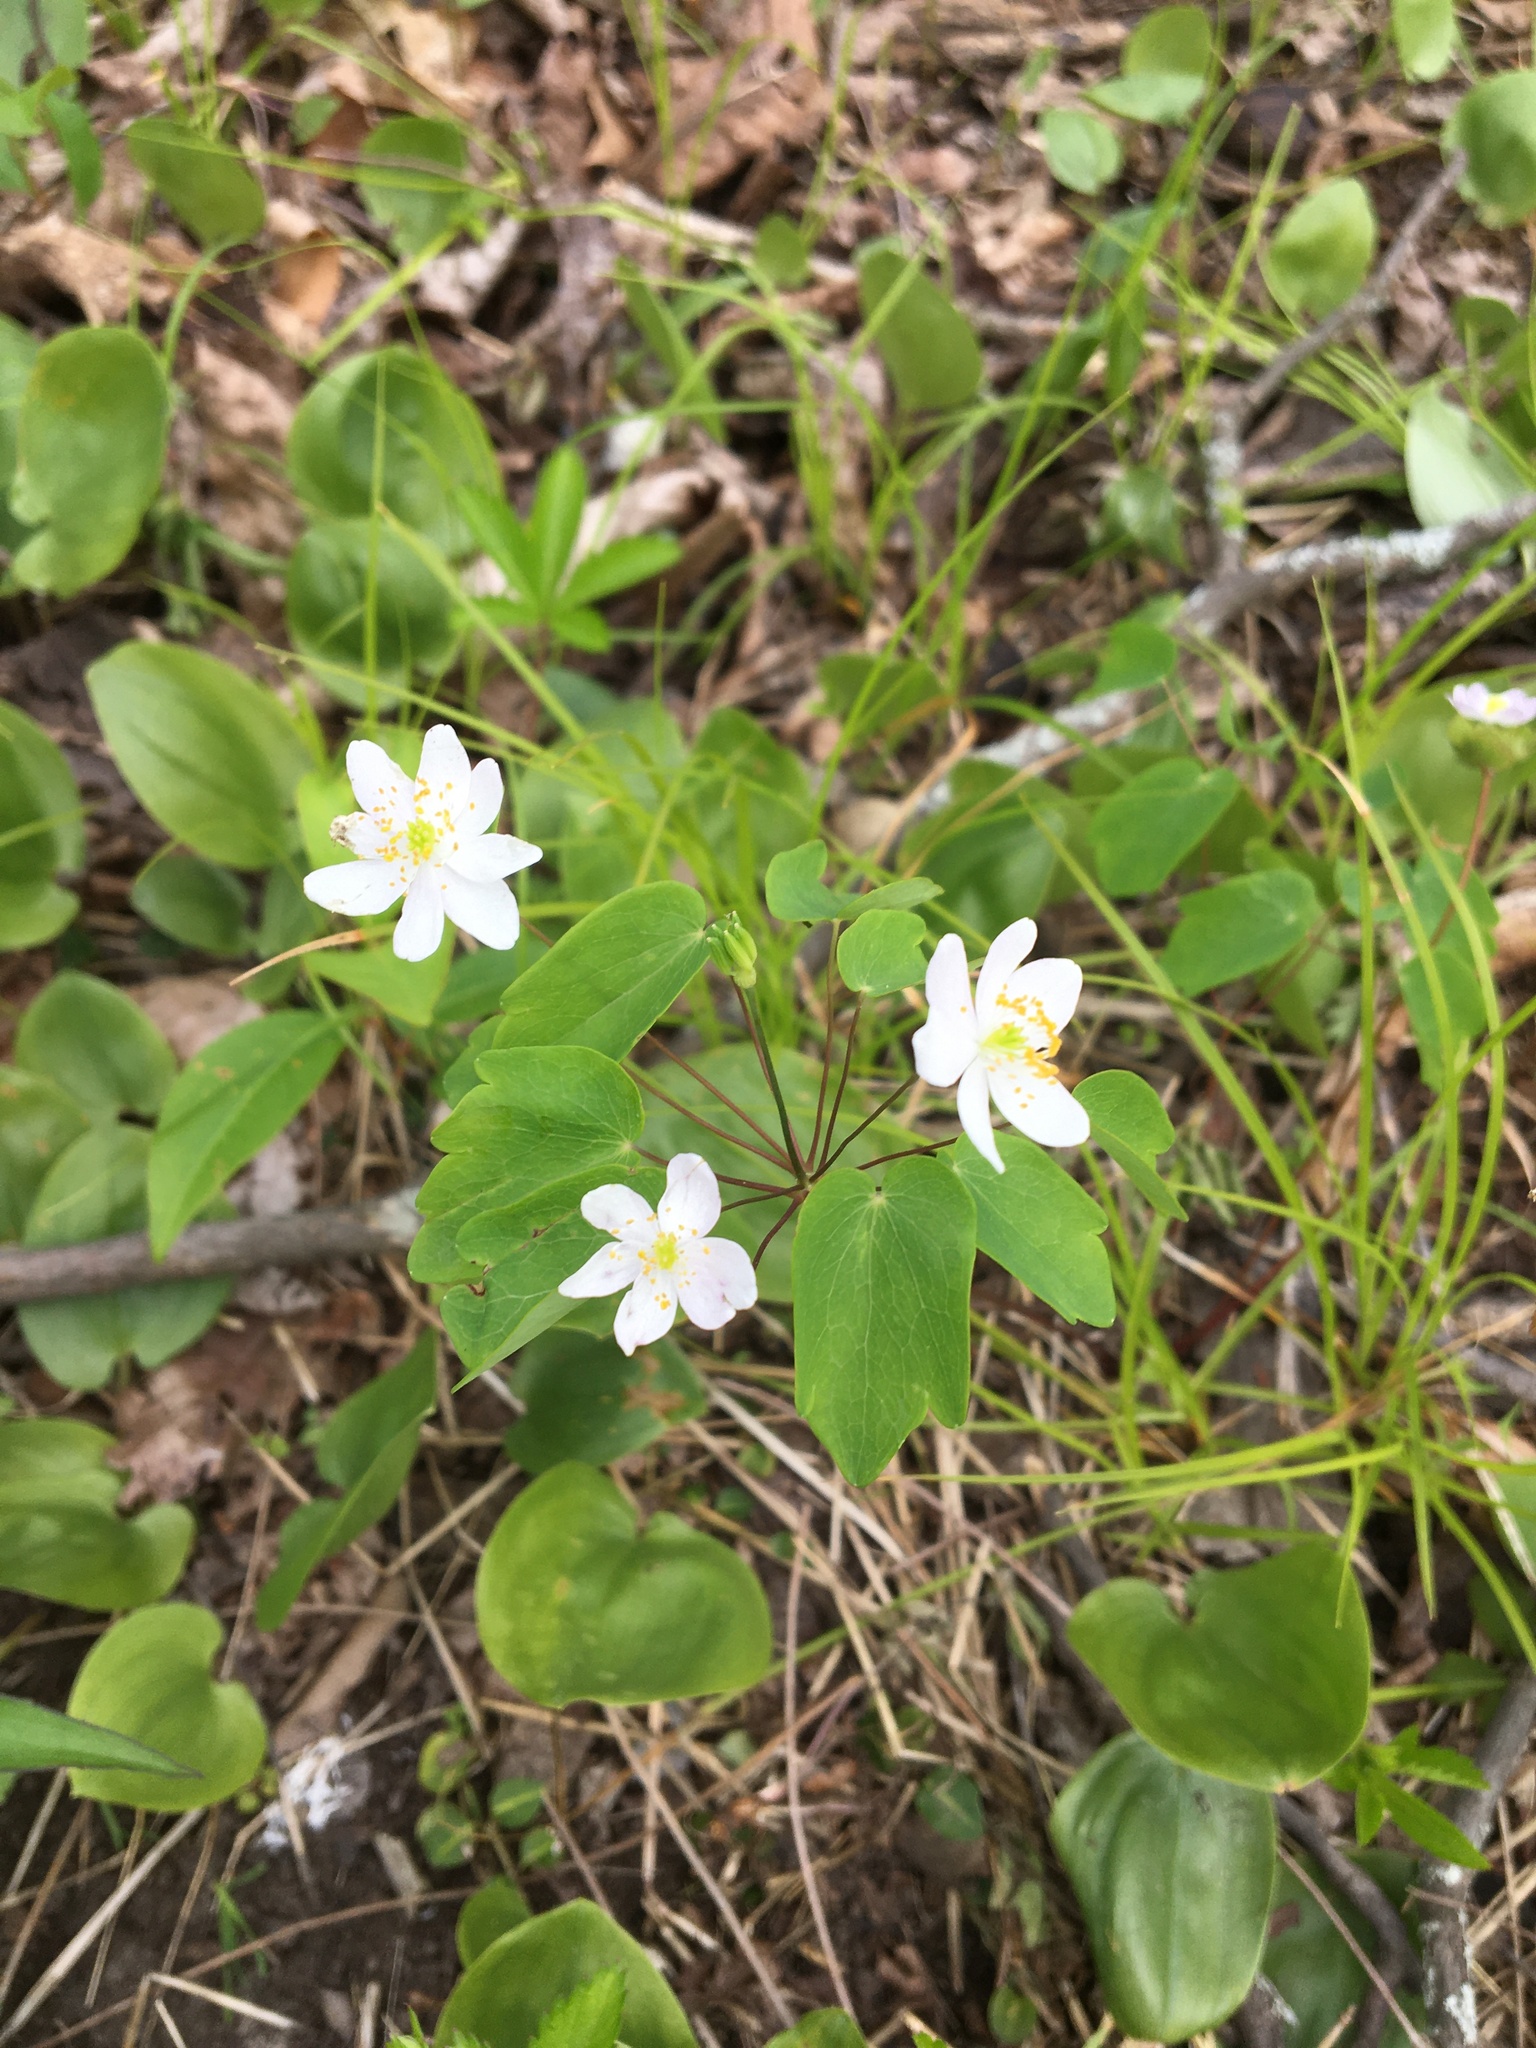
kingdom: Plantae
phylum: Tracheophyta
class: Magnoliopsida
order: Ranunculales
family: Ranunculaceae
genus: Thalictrum
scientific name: Thalictrum thalictroides
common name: Rue-anemone
